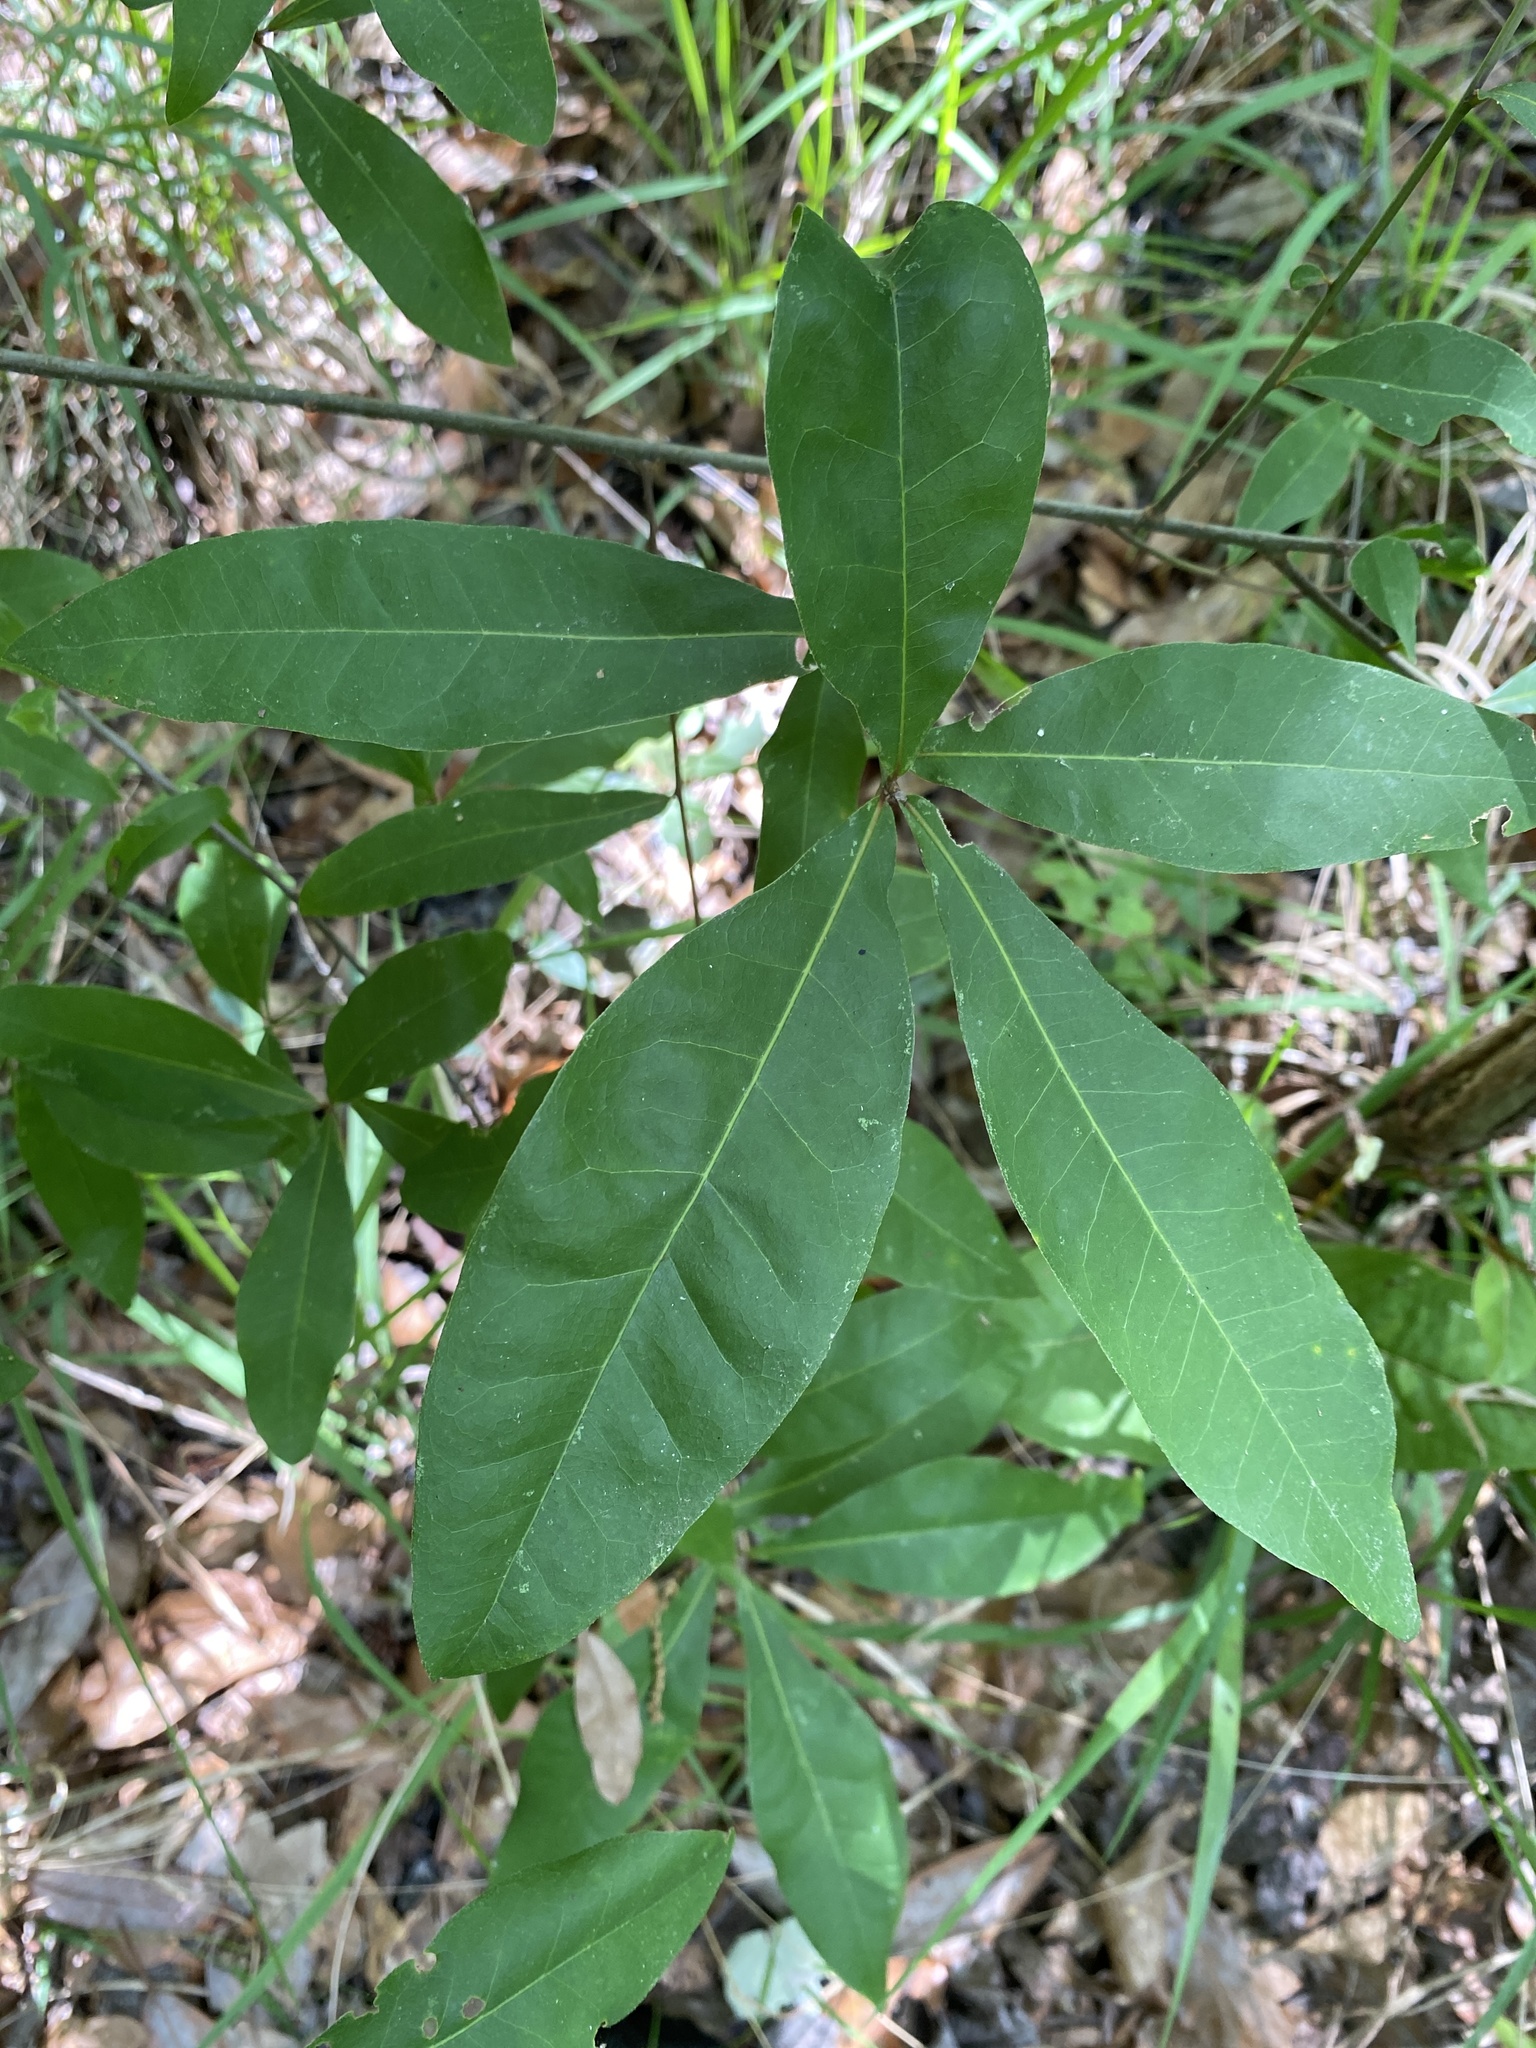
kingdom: Plantae
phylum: Tracheophyta
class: Magnoliopsida
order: Fagales
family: Fagaceae
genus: Quercus
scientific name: Quercus laurifolia
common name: Swamp laurel oak
